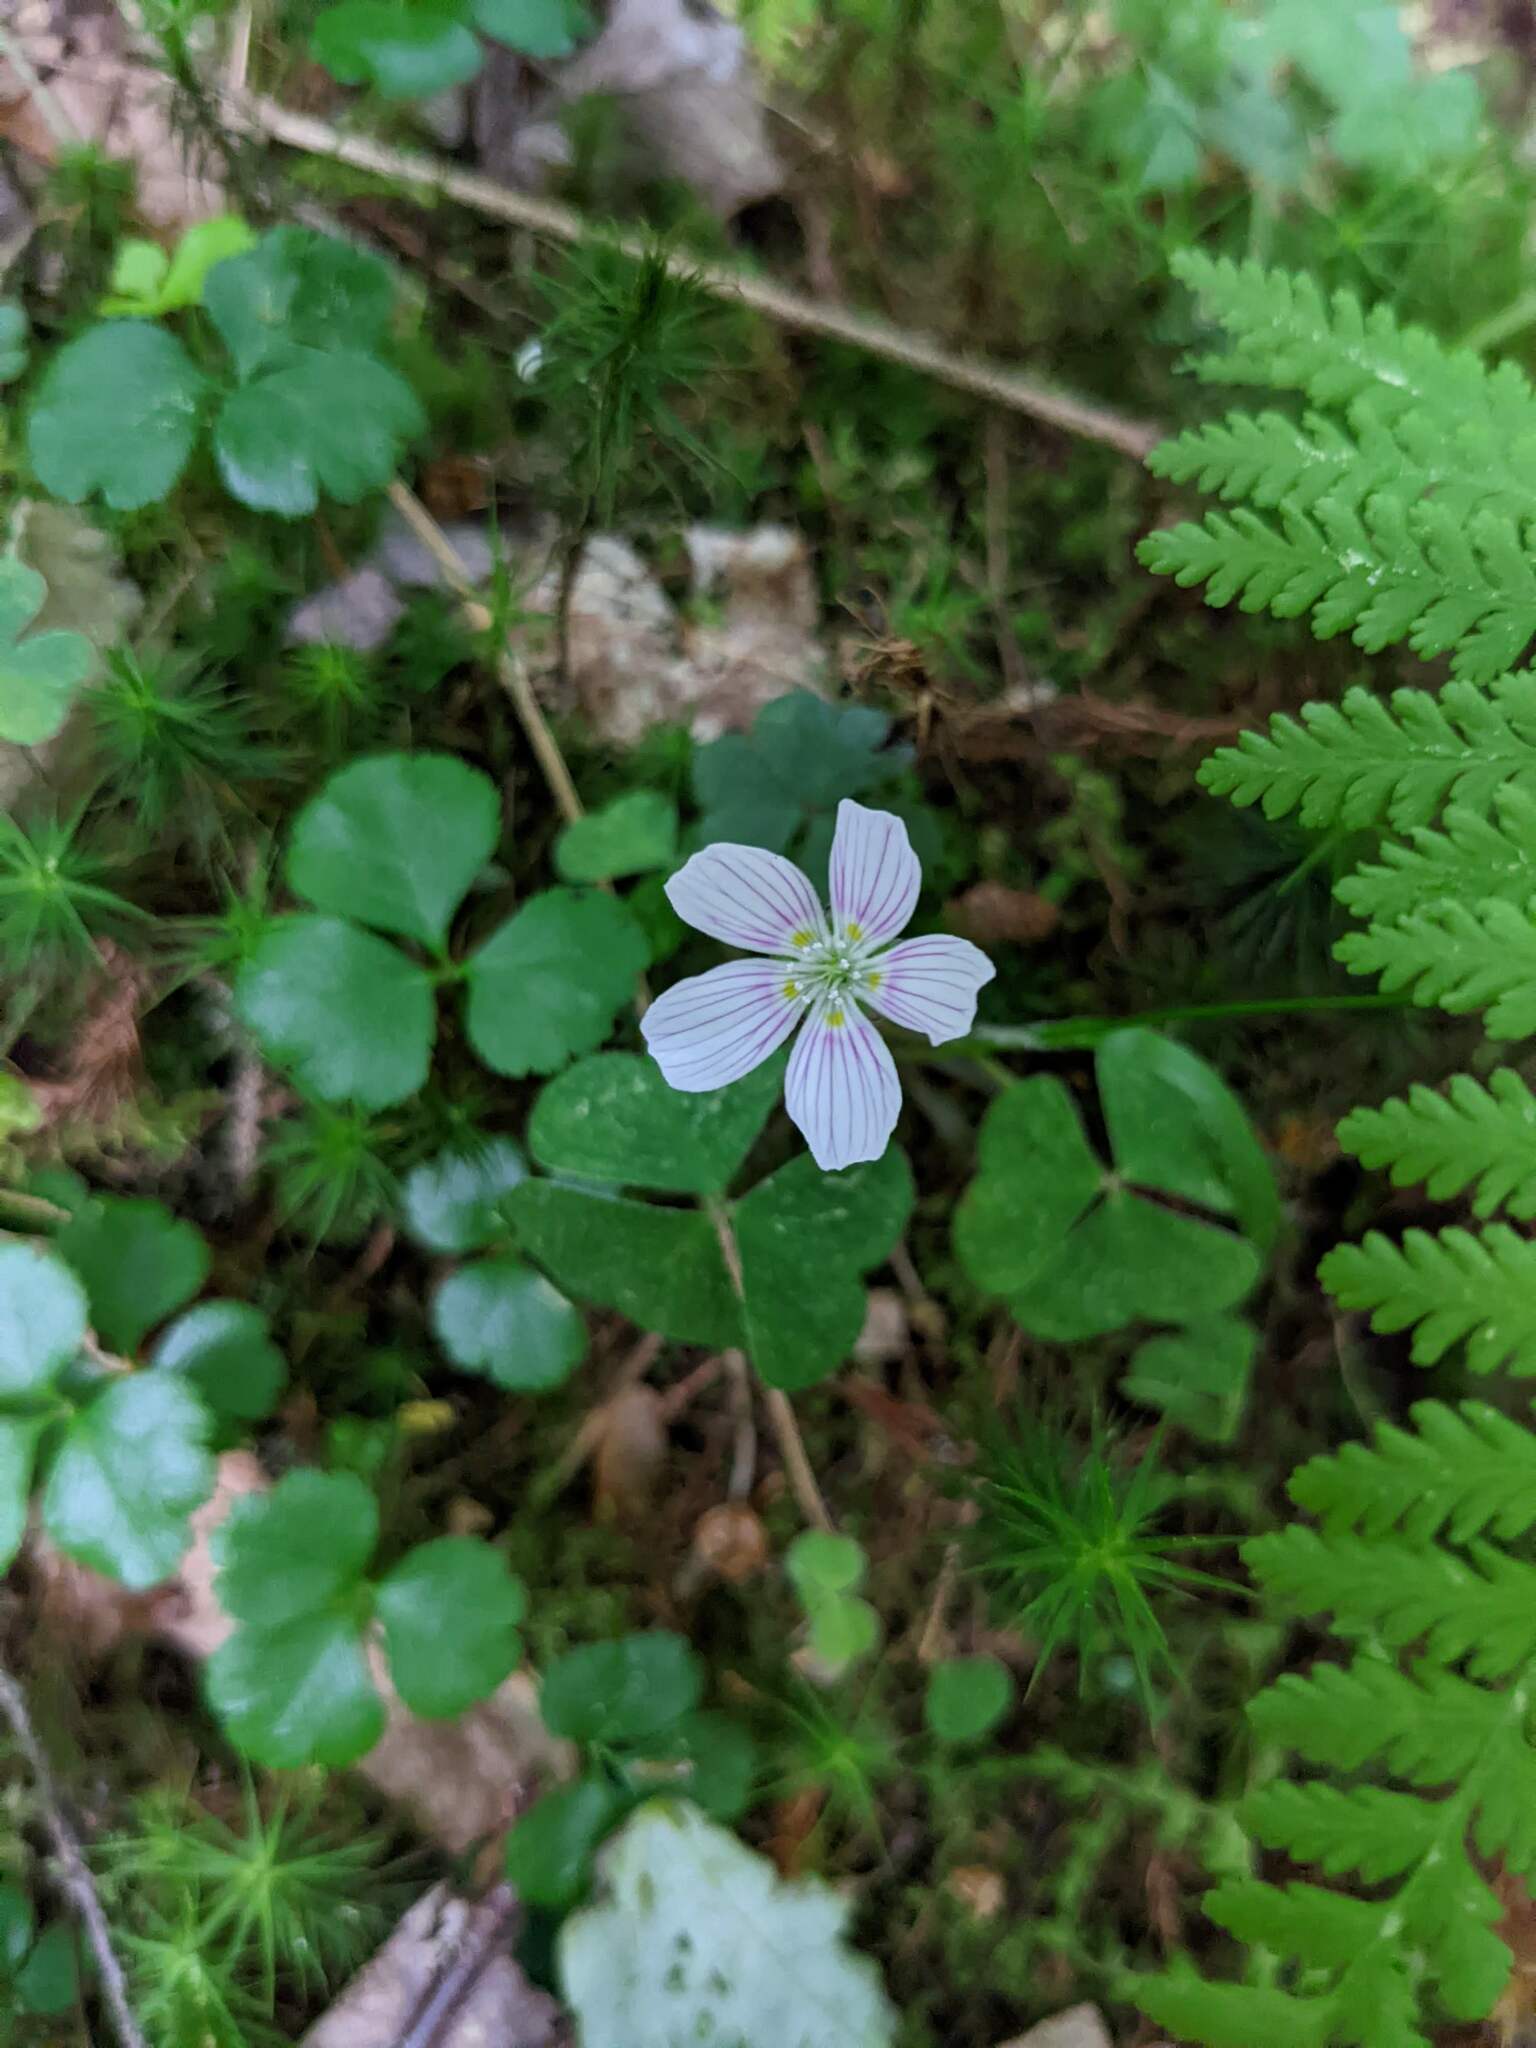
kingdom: Plantae
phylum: Tracheophyta
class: Magnoliopsida
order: Oxalidales
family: Oxalidaceae
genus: Oxalis
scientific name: Oxalis montana
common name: American wood-sorrel
